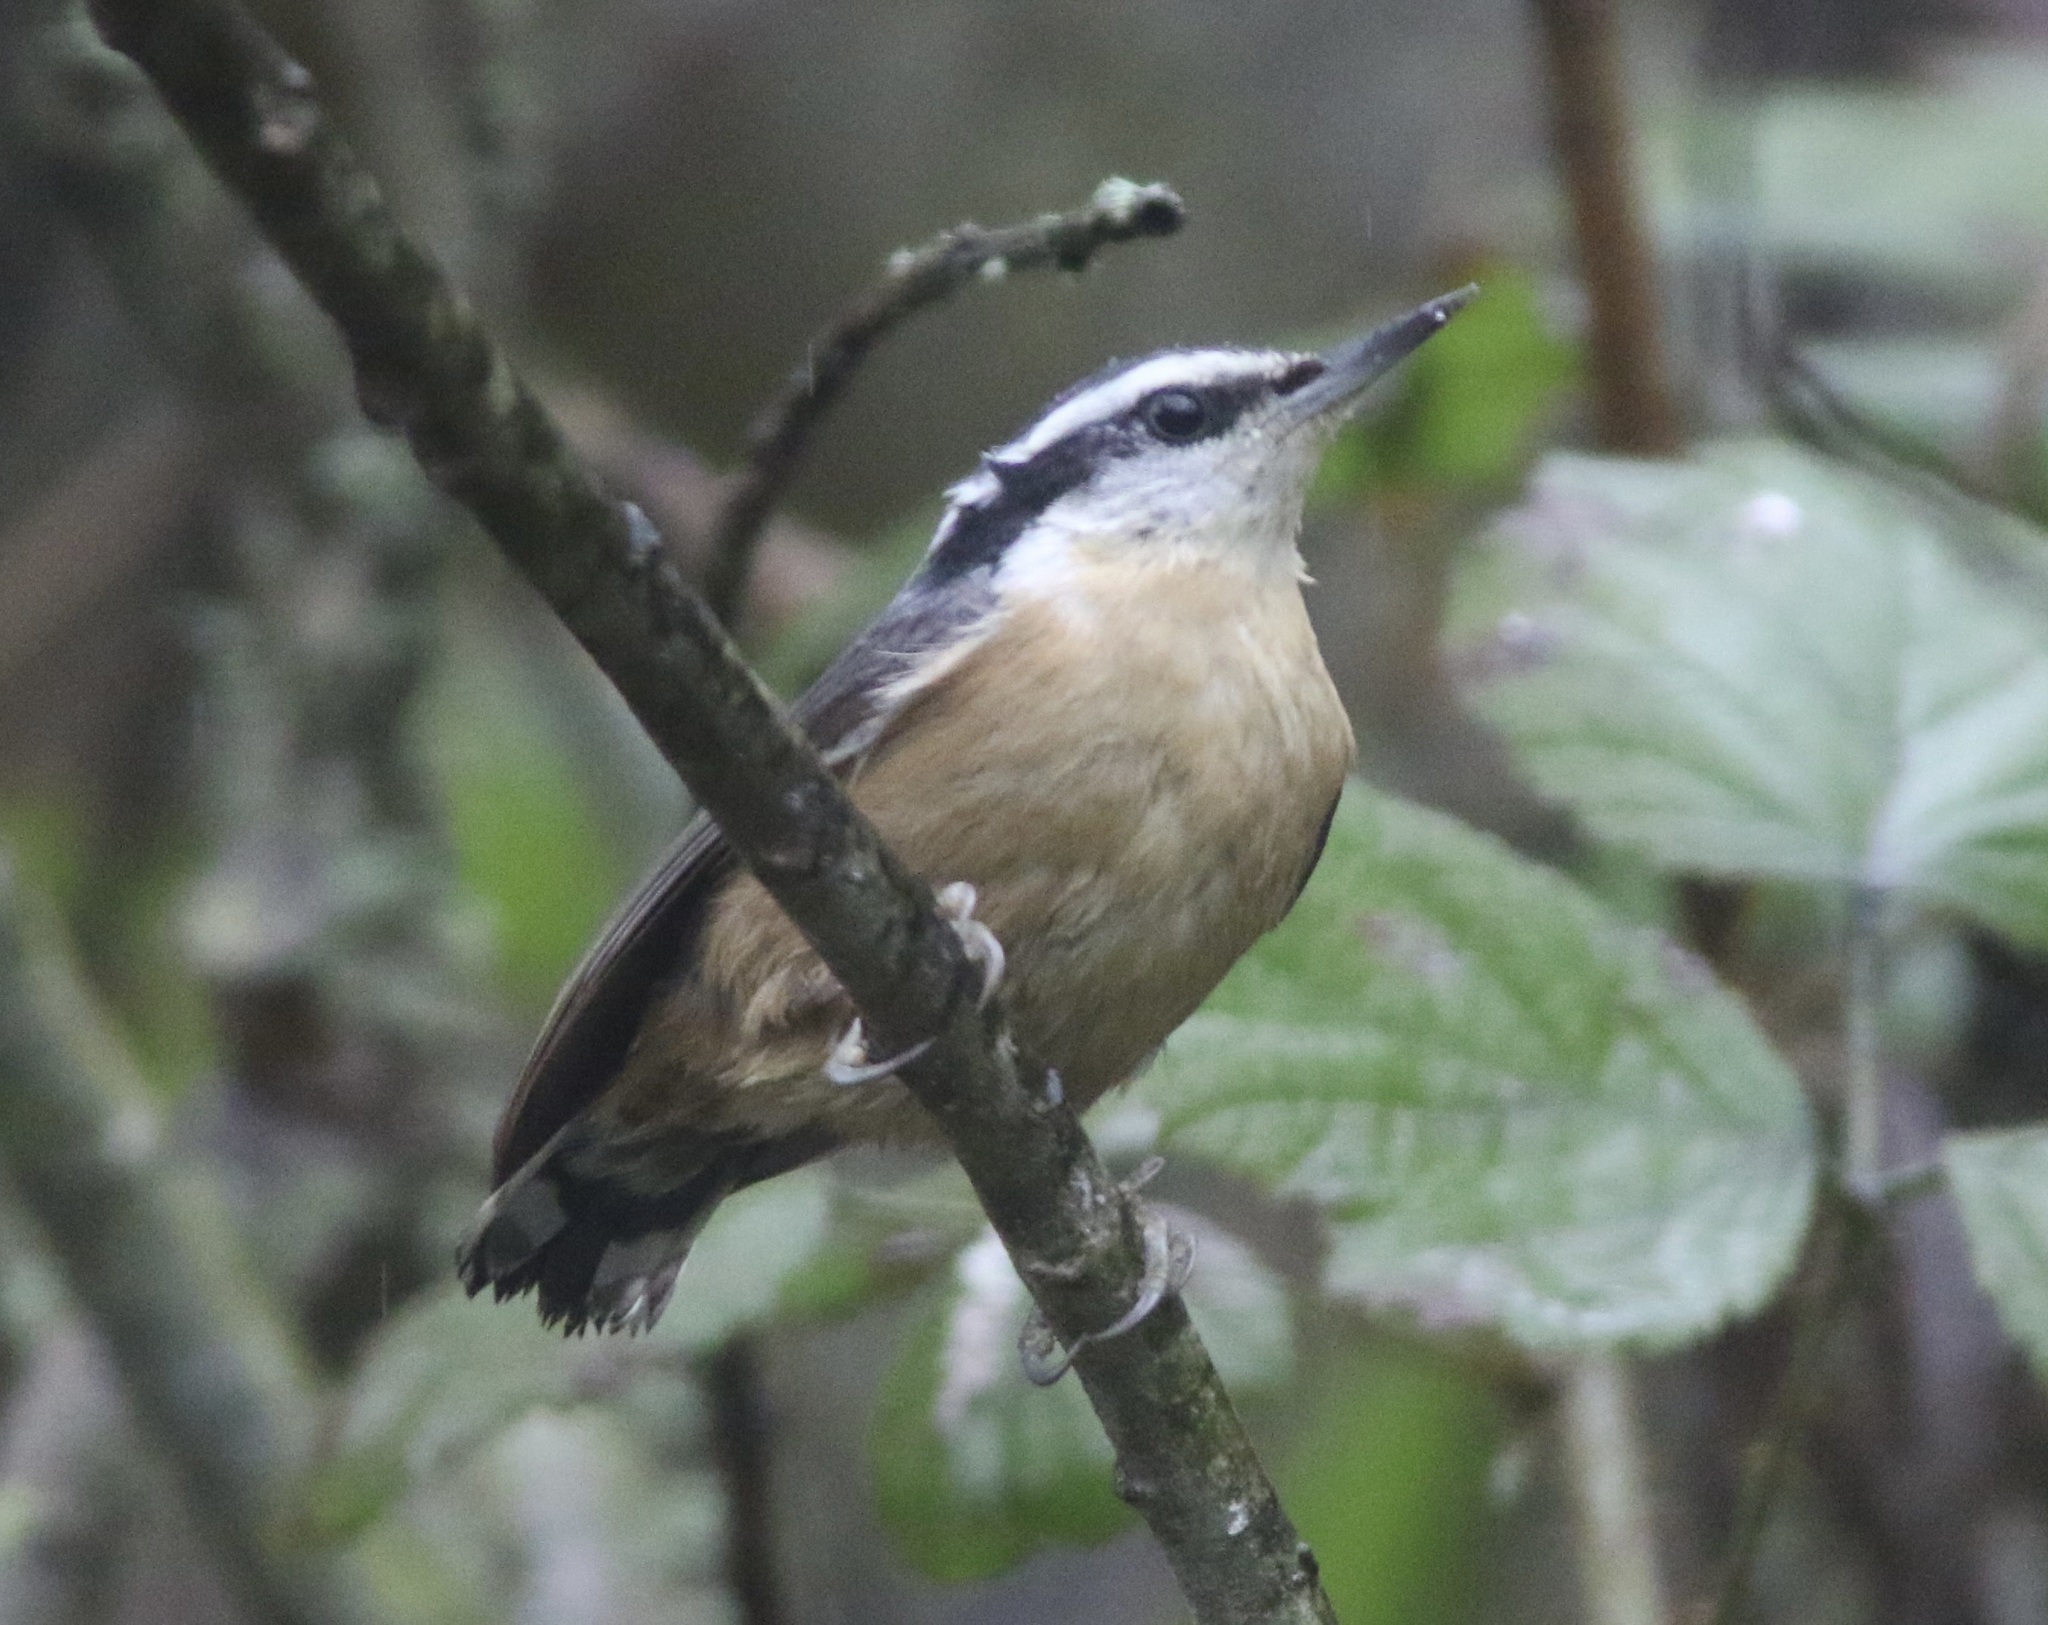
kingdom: Animalia
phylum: Chordata
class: Aves
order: Passeriformes
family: Sittidae
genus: Sitta
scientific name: Sitta canadensis
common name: Red-breasted nuthatch
